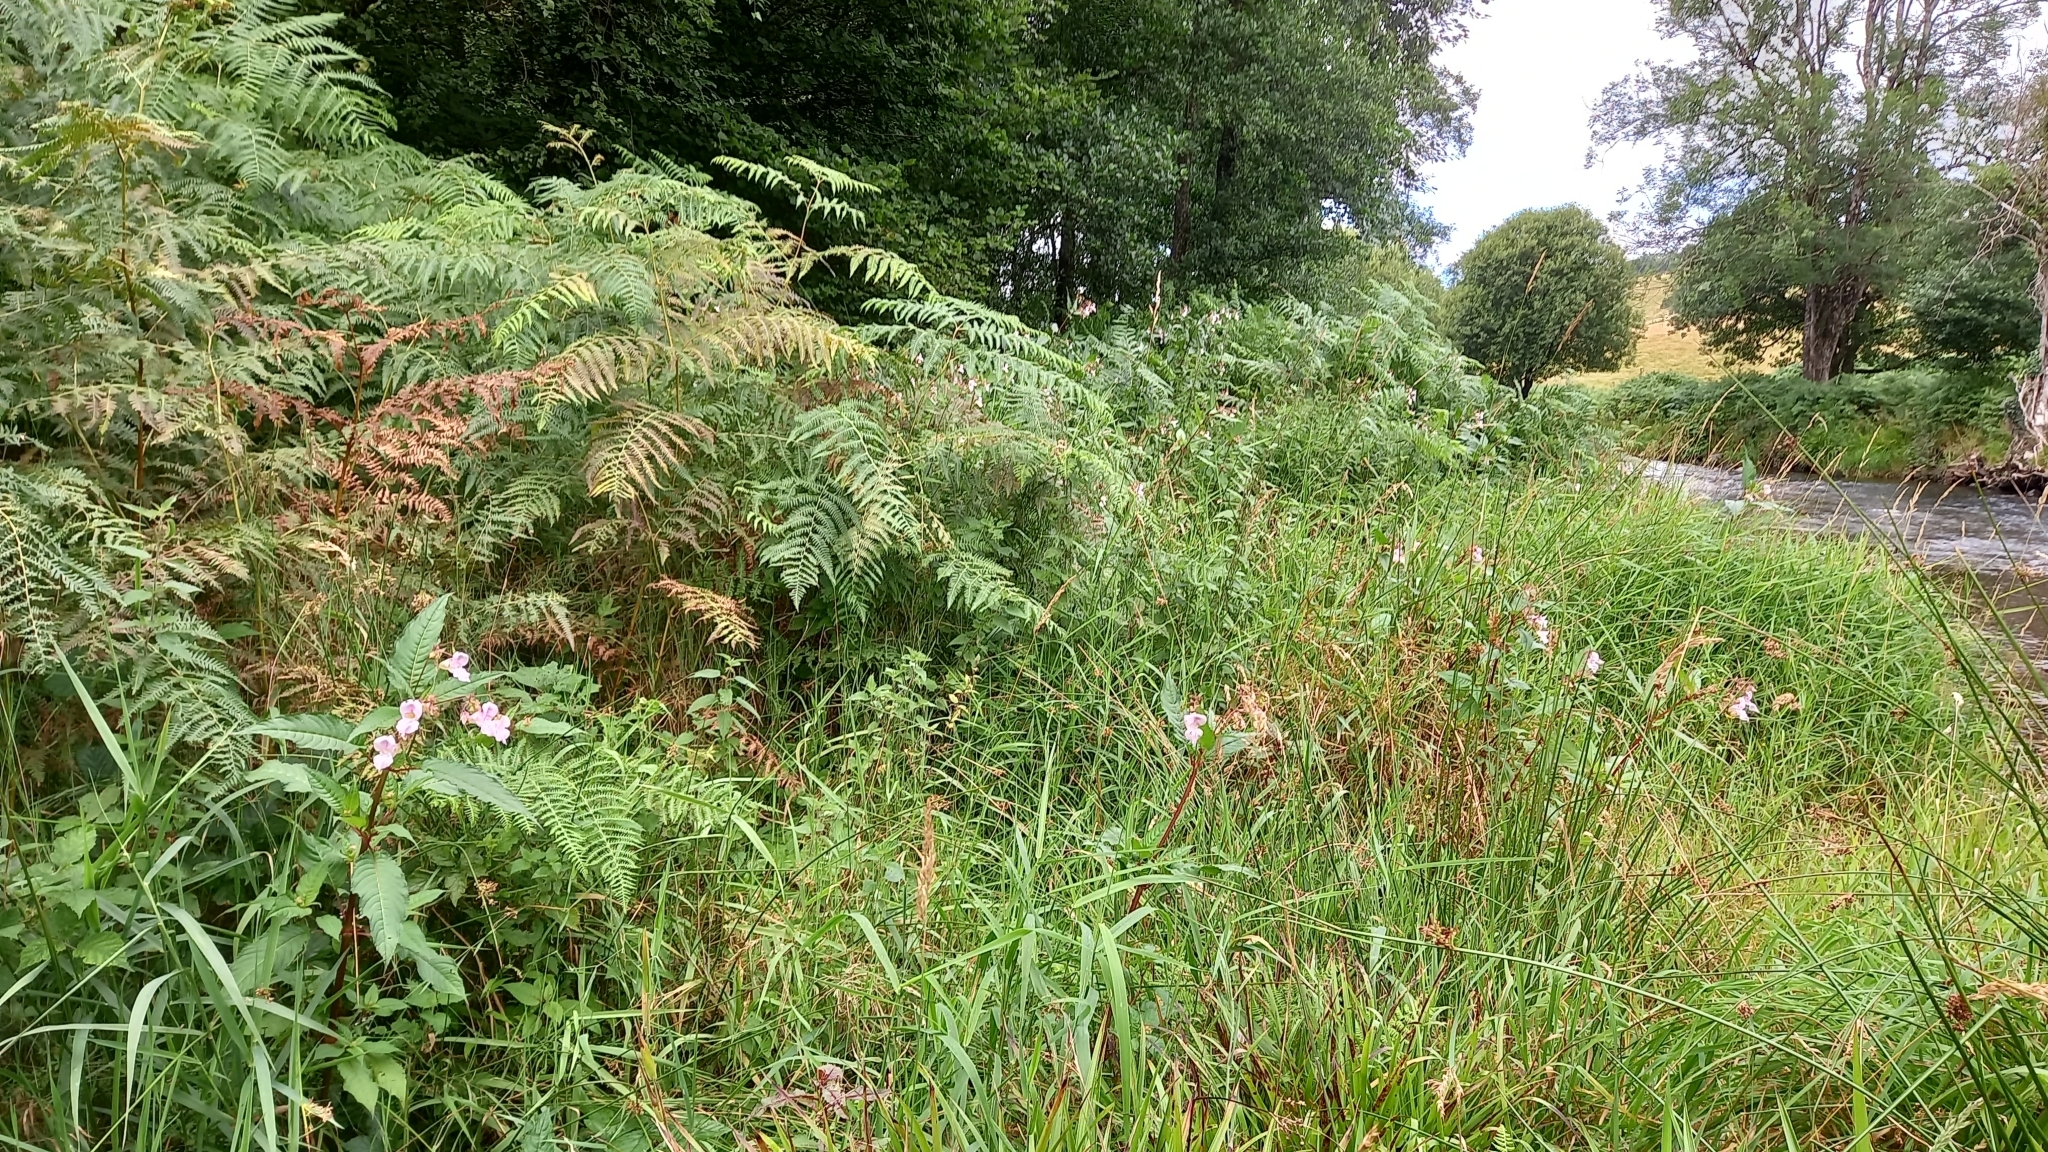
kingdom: Plantae
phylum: Tracheophyta
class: Magnoliopsida
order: Ericales
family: Balsaminaceae
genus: Impatiens
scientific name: Impatiens glandulifera
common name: Himalayan balsam
